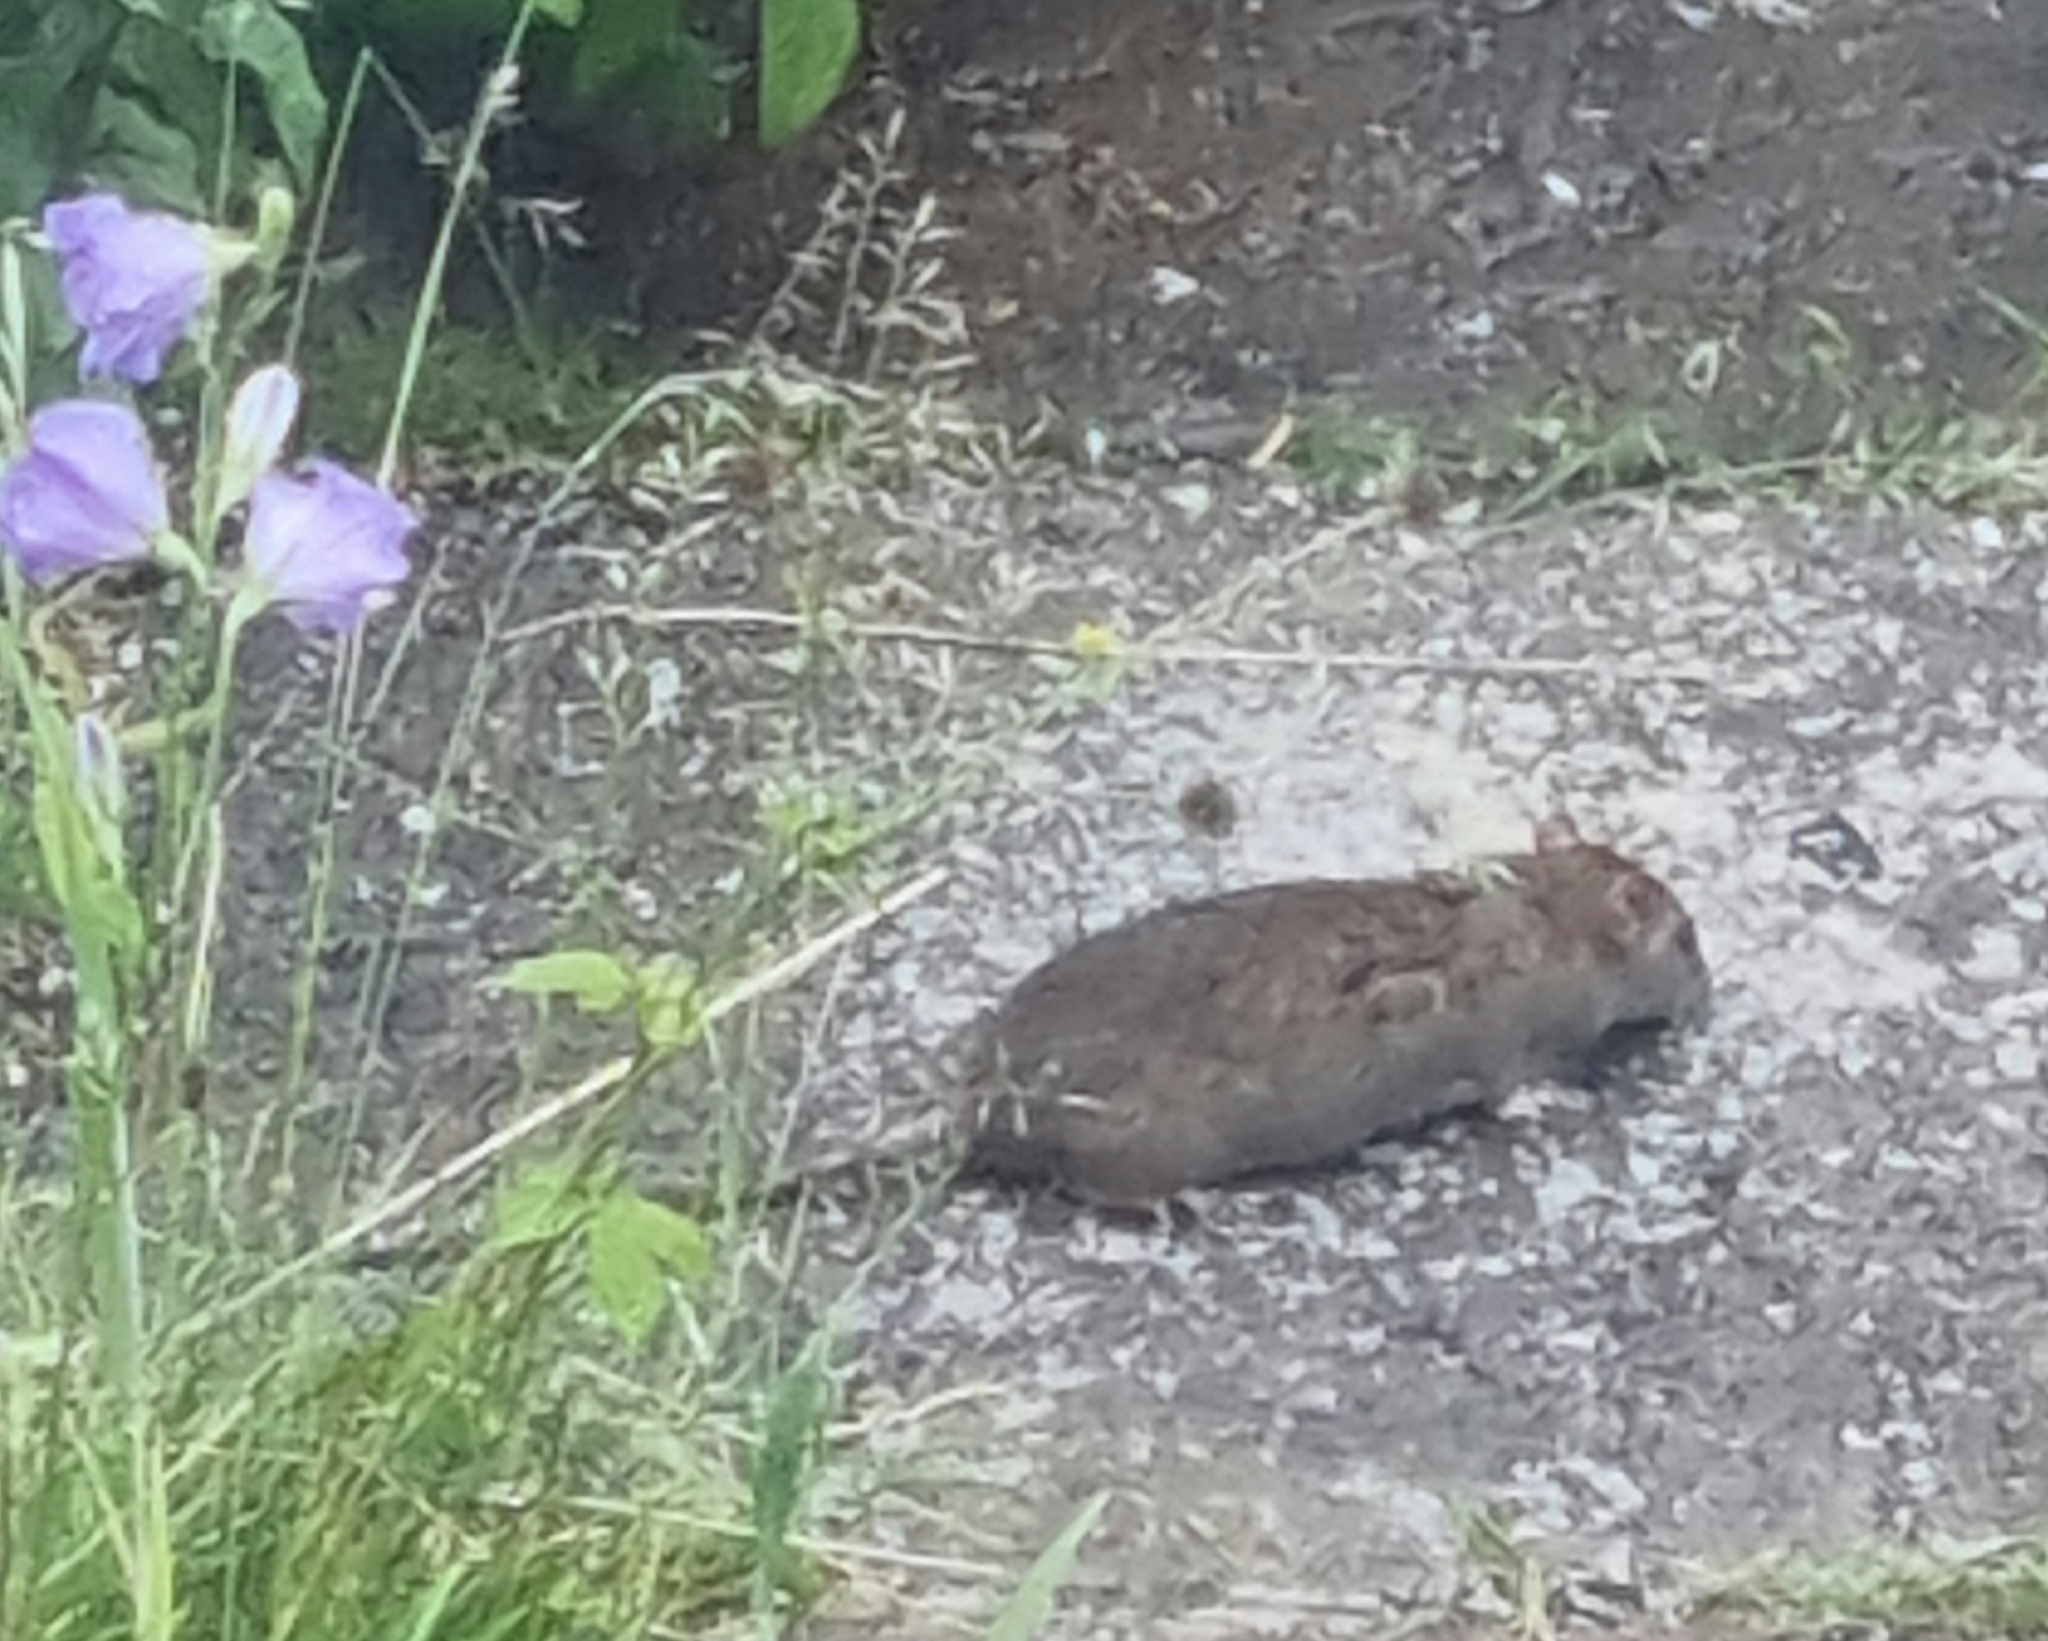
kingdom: Animalia
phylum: Chordata
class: Mammalia
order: Rodentia
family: Muridae
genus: Rattus
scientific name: Rattus norvegicus
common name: Brown rat
